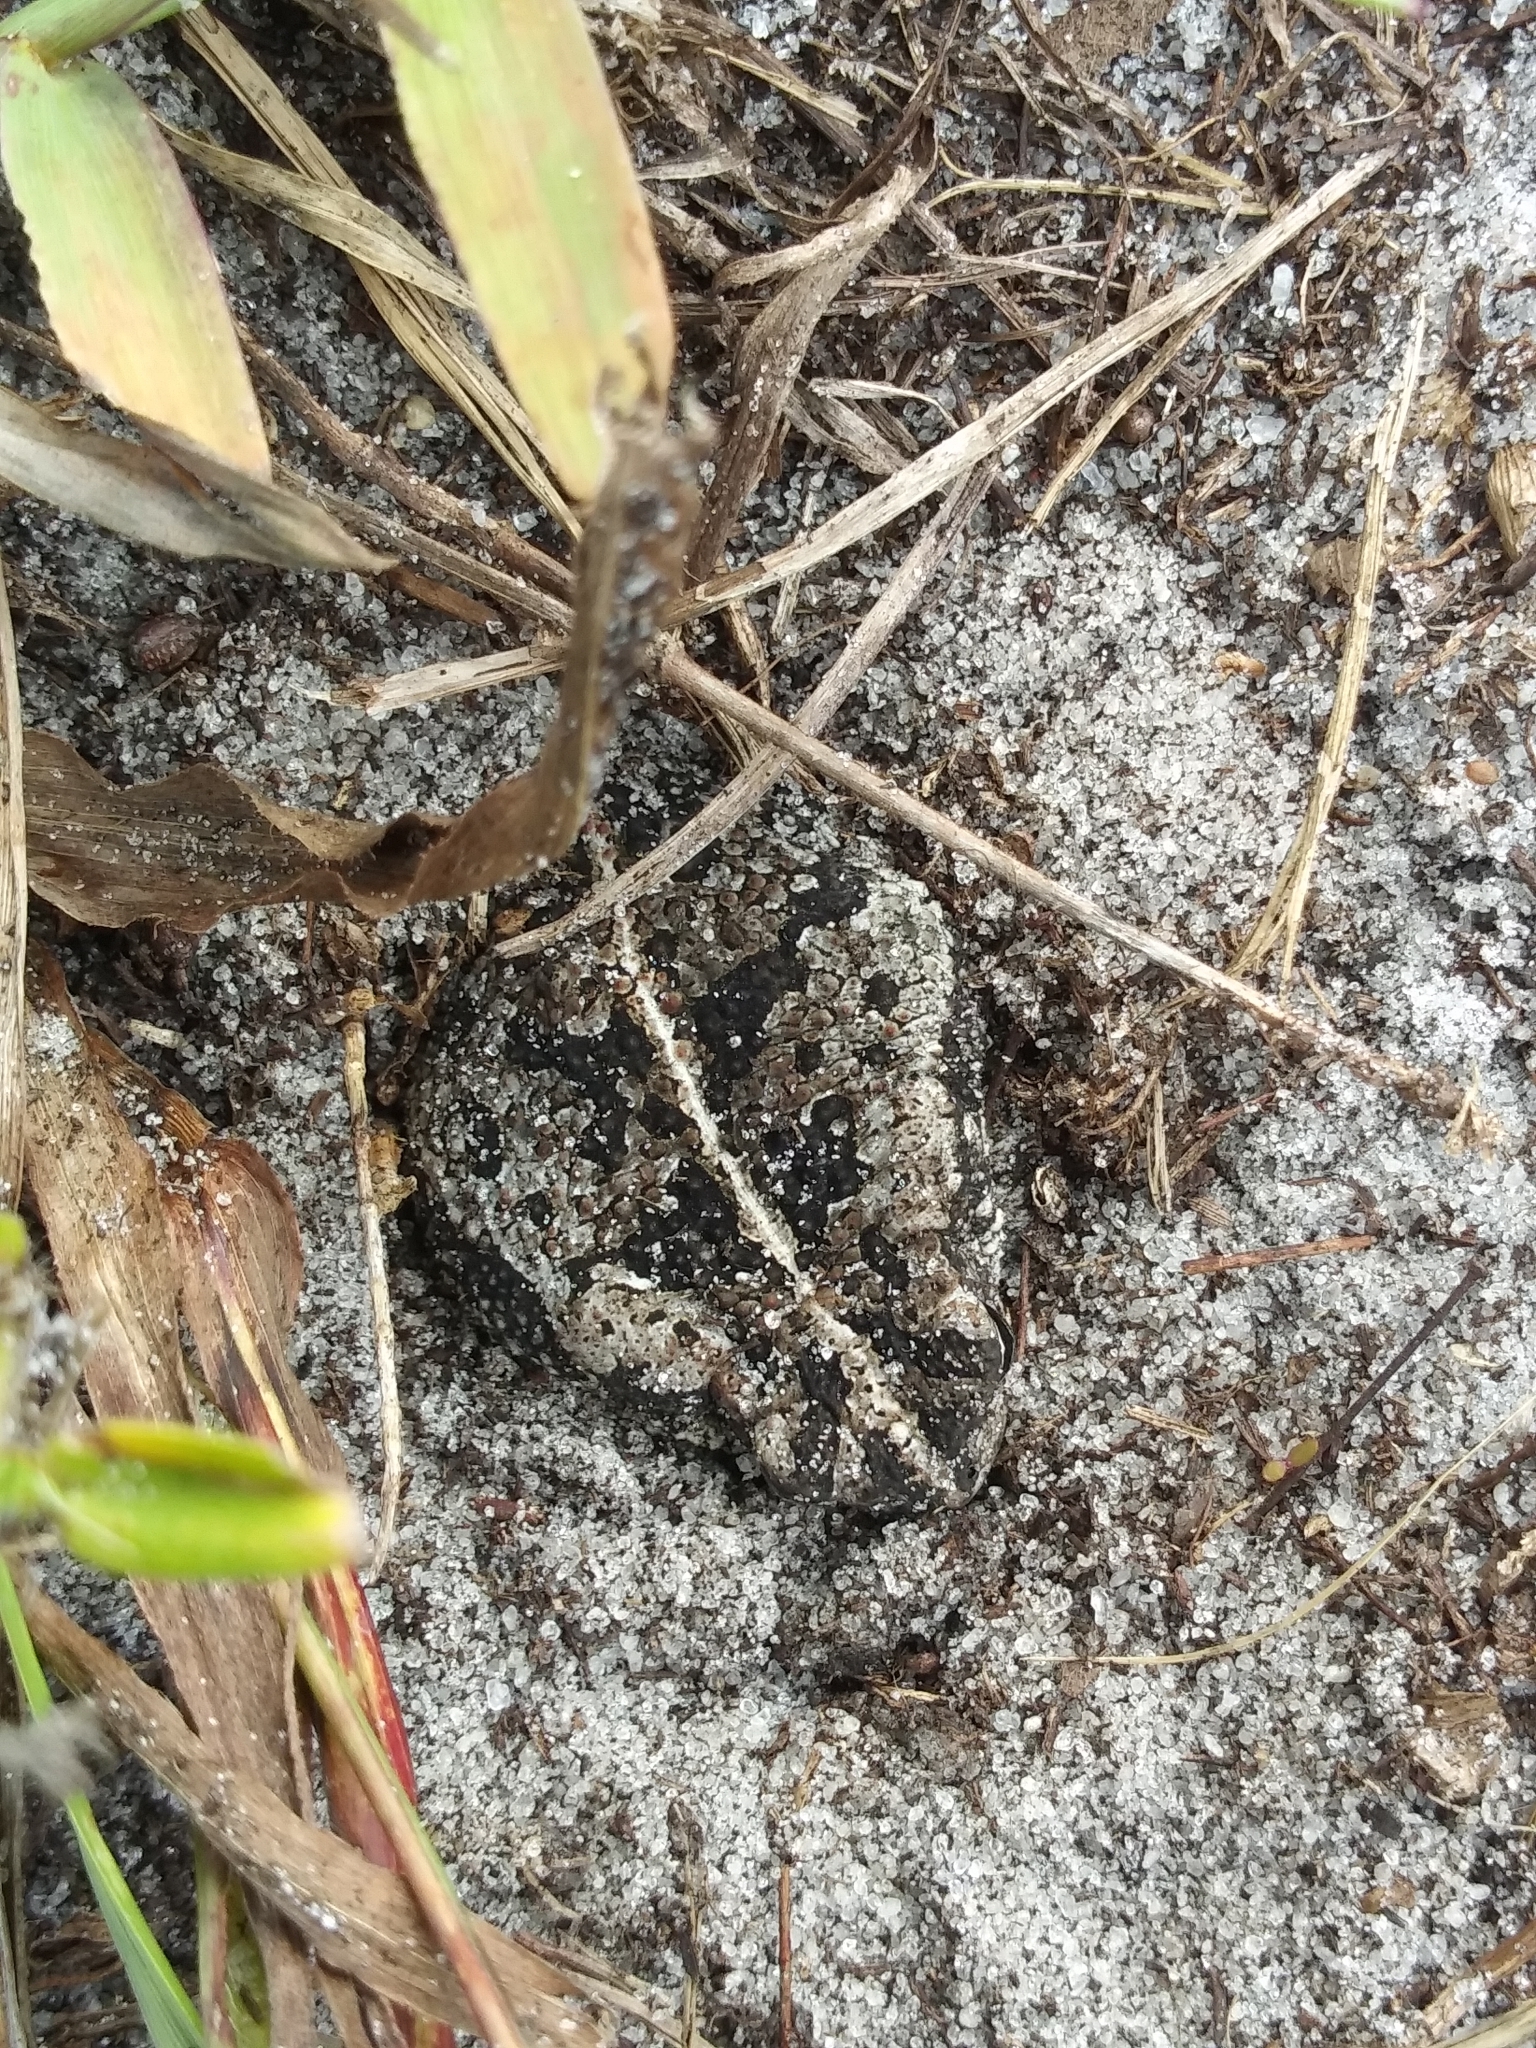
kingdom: Animalia
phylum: Chordata
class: Amphibia
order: Anura
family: Bufonidae
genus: Anaxyrus
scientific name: Anaxyrus quercicus
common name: Oak toad
